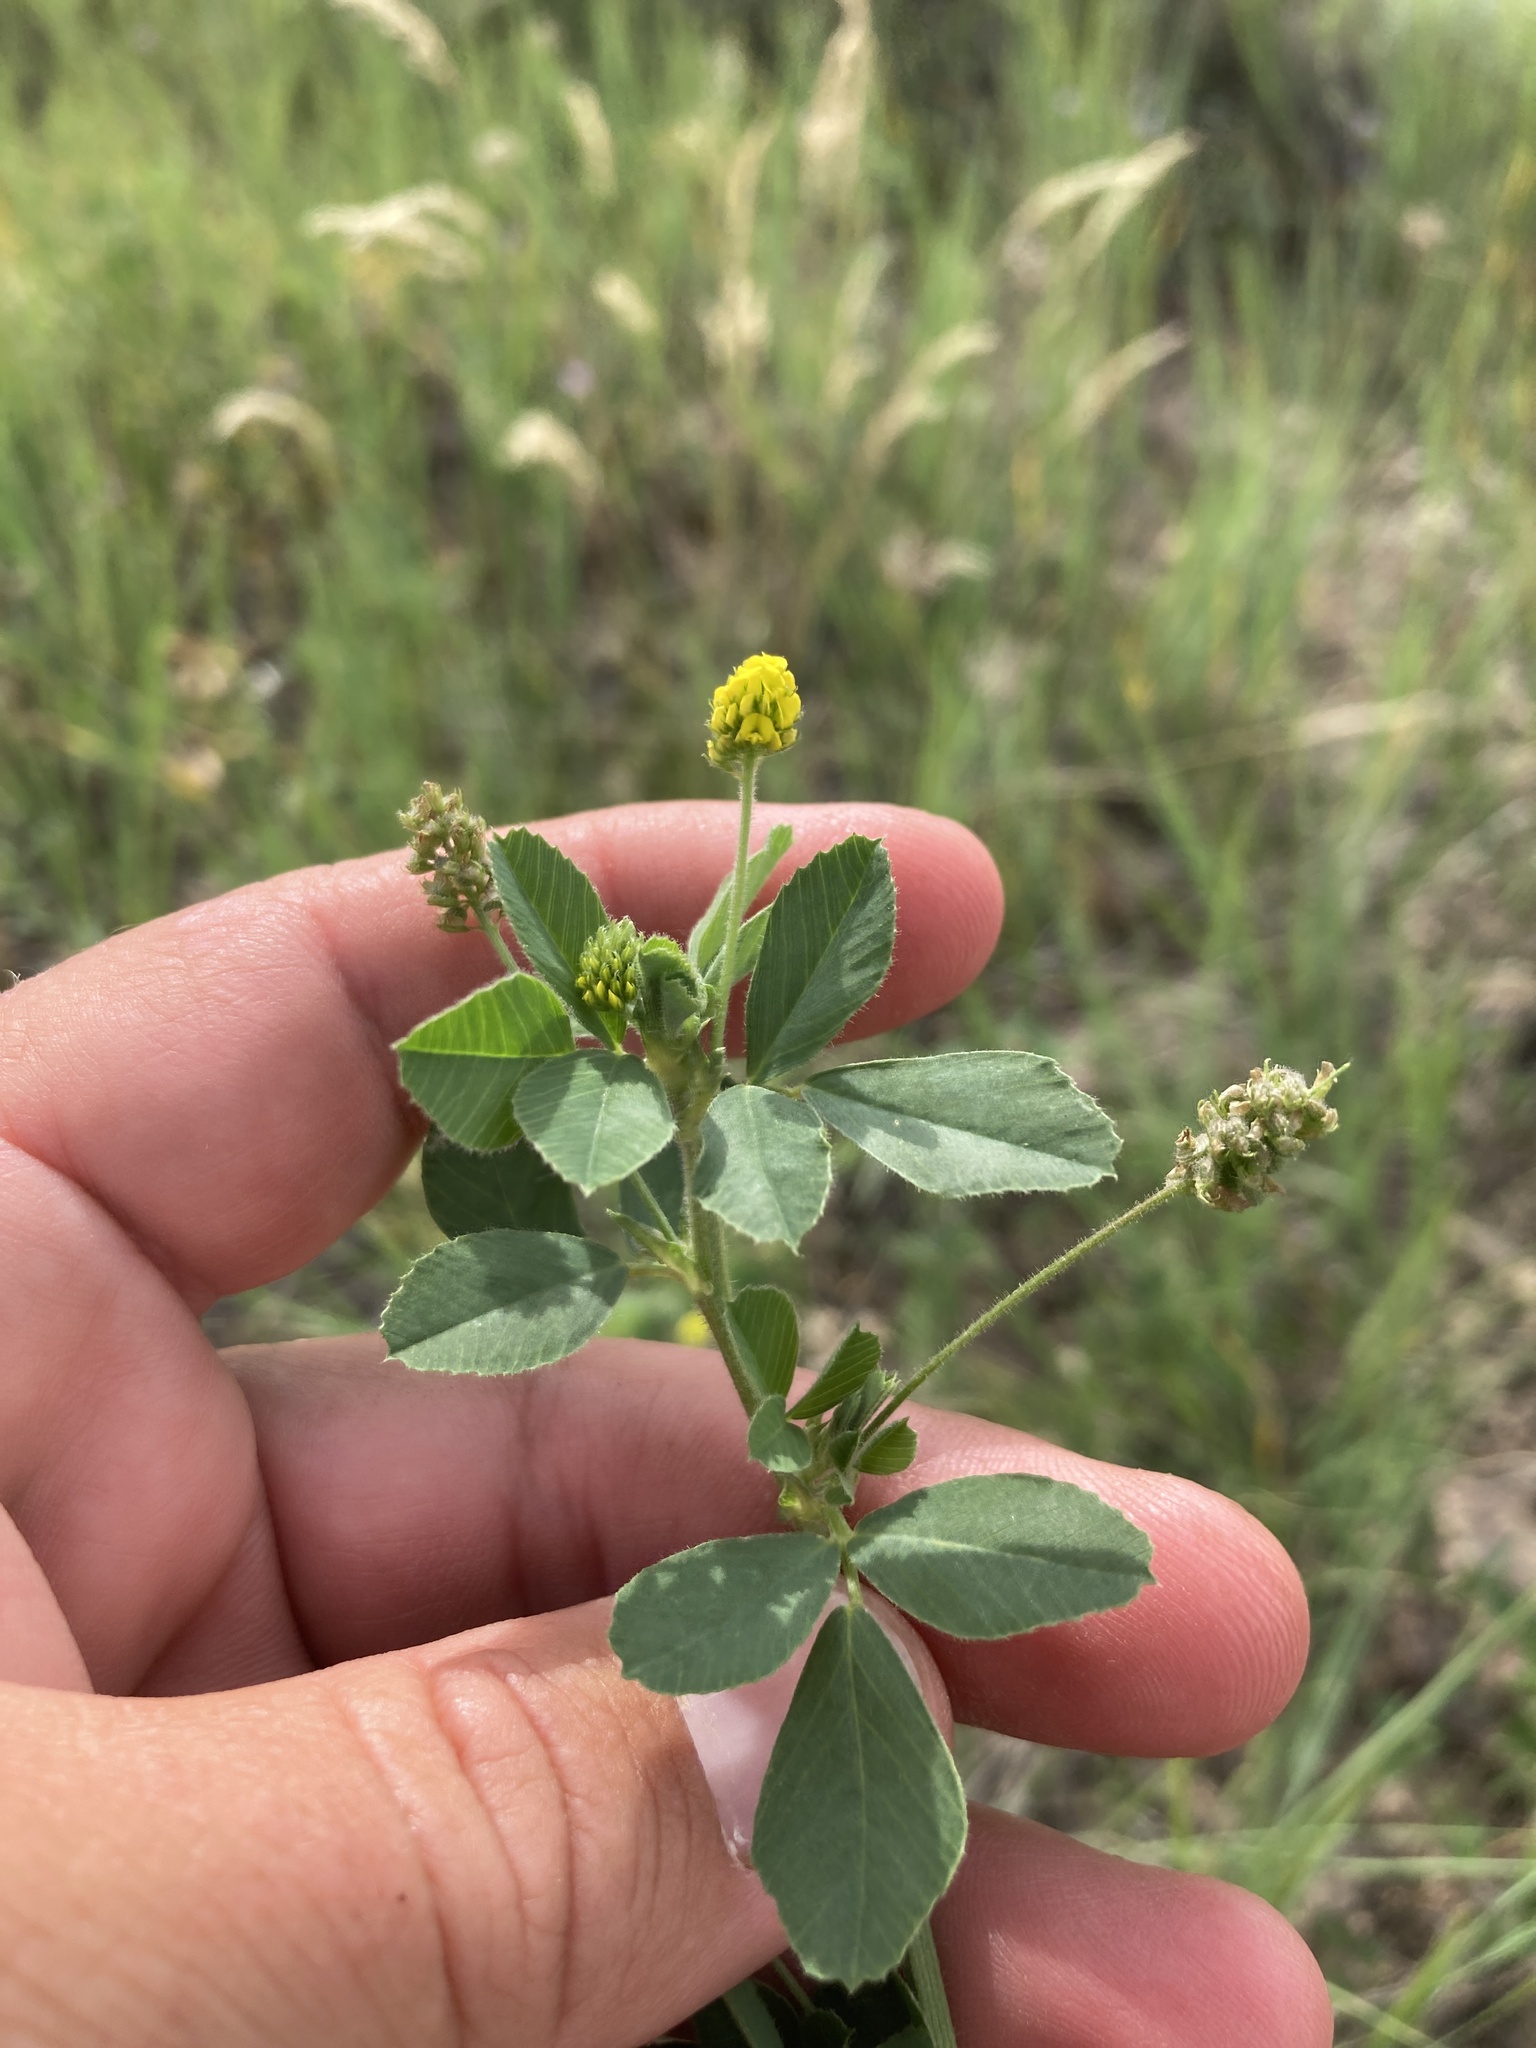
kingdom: Plantae
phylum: Tracheophyta
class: Magnoliopsida
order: Fabales
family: Fabaceae
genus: Medicago
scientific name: Medicago lupulina
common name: Black medick
